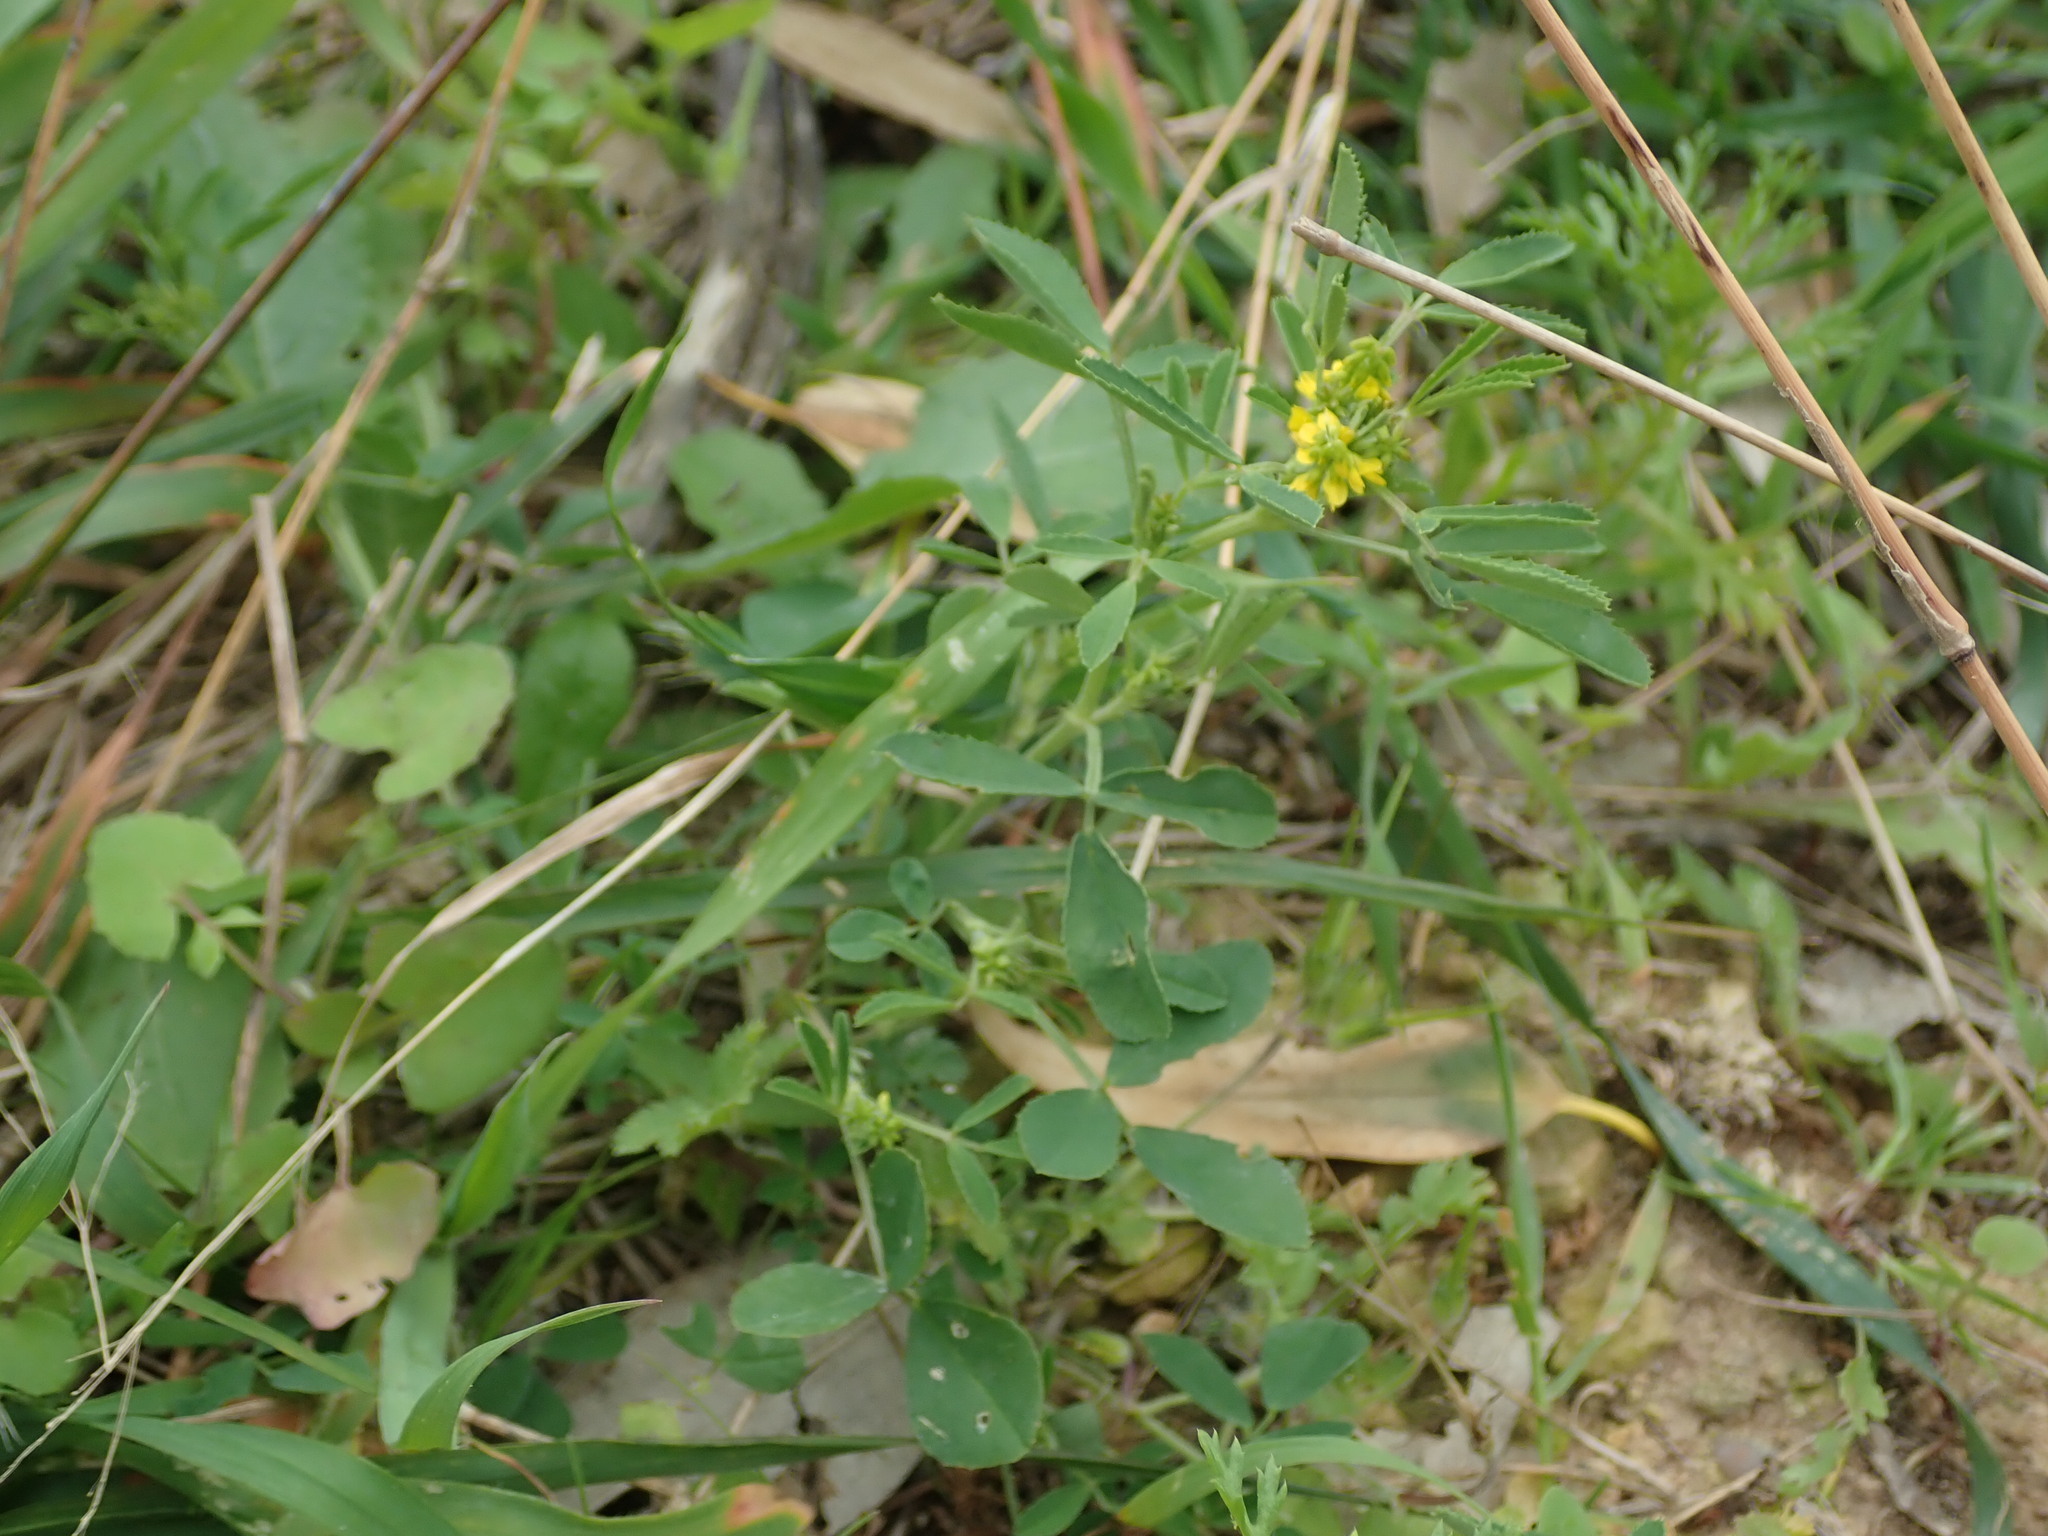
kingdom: Plantae
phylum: Tracheophyta
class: Magnoliopsida
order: Fabales
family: Fabaceae
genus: Melilotus
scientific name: Melilotus sulcatus
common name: Furrowed melilot
